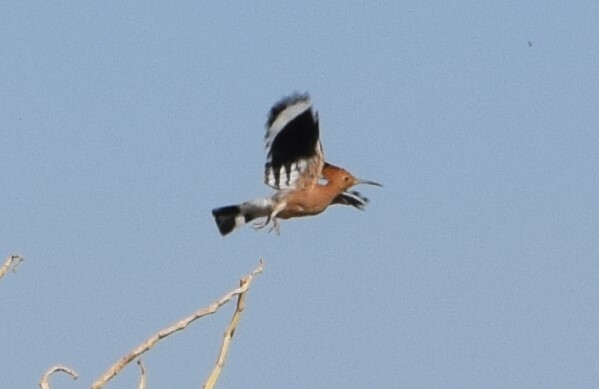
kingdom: Animalia
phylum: Chordata
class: Aves
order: Bucerotiformes
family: Upupidae
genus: Upupa
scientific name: Upupa epops
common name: Eurasian hoopoe
